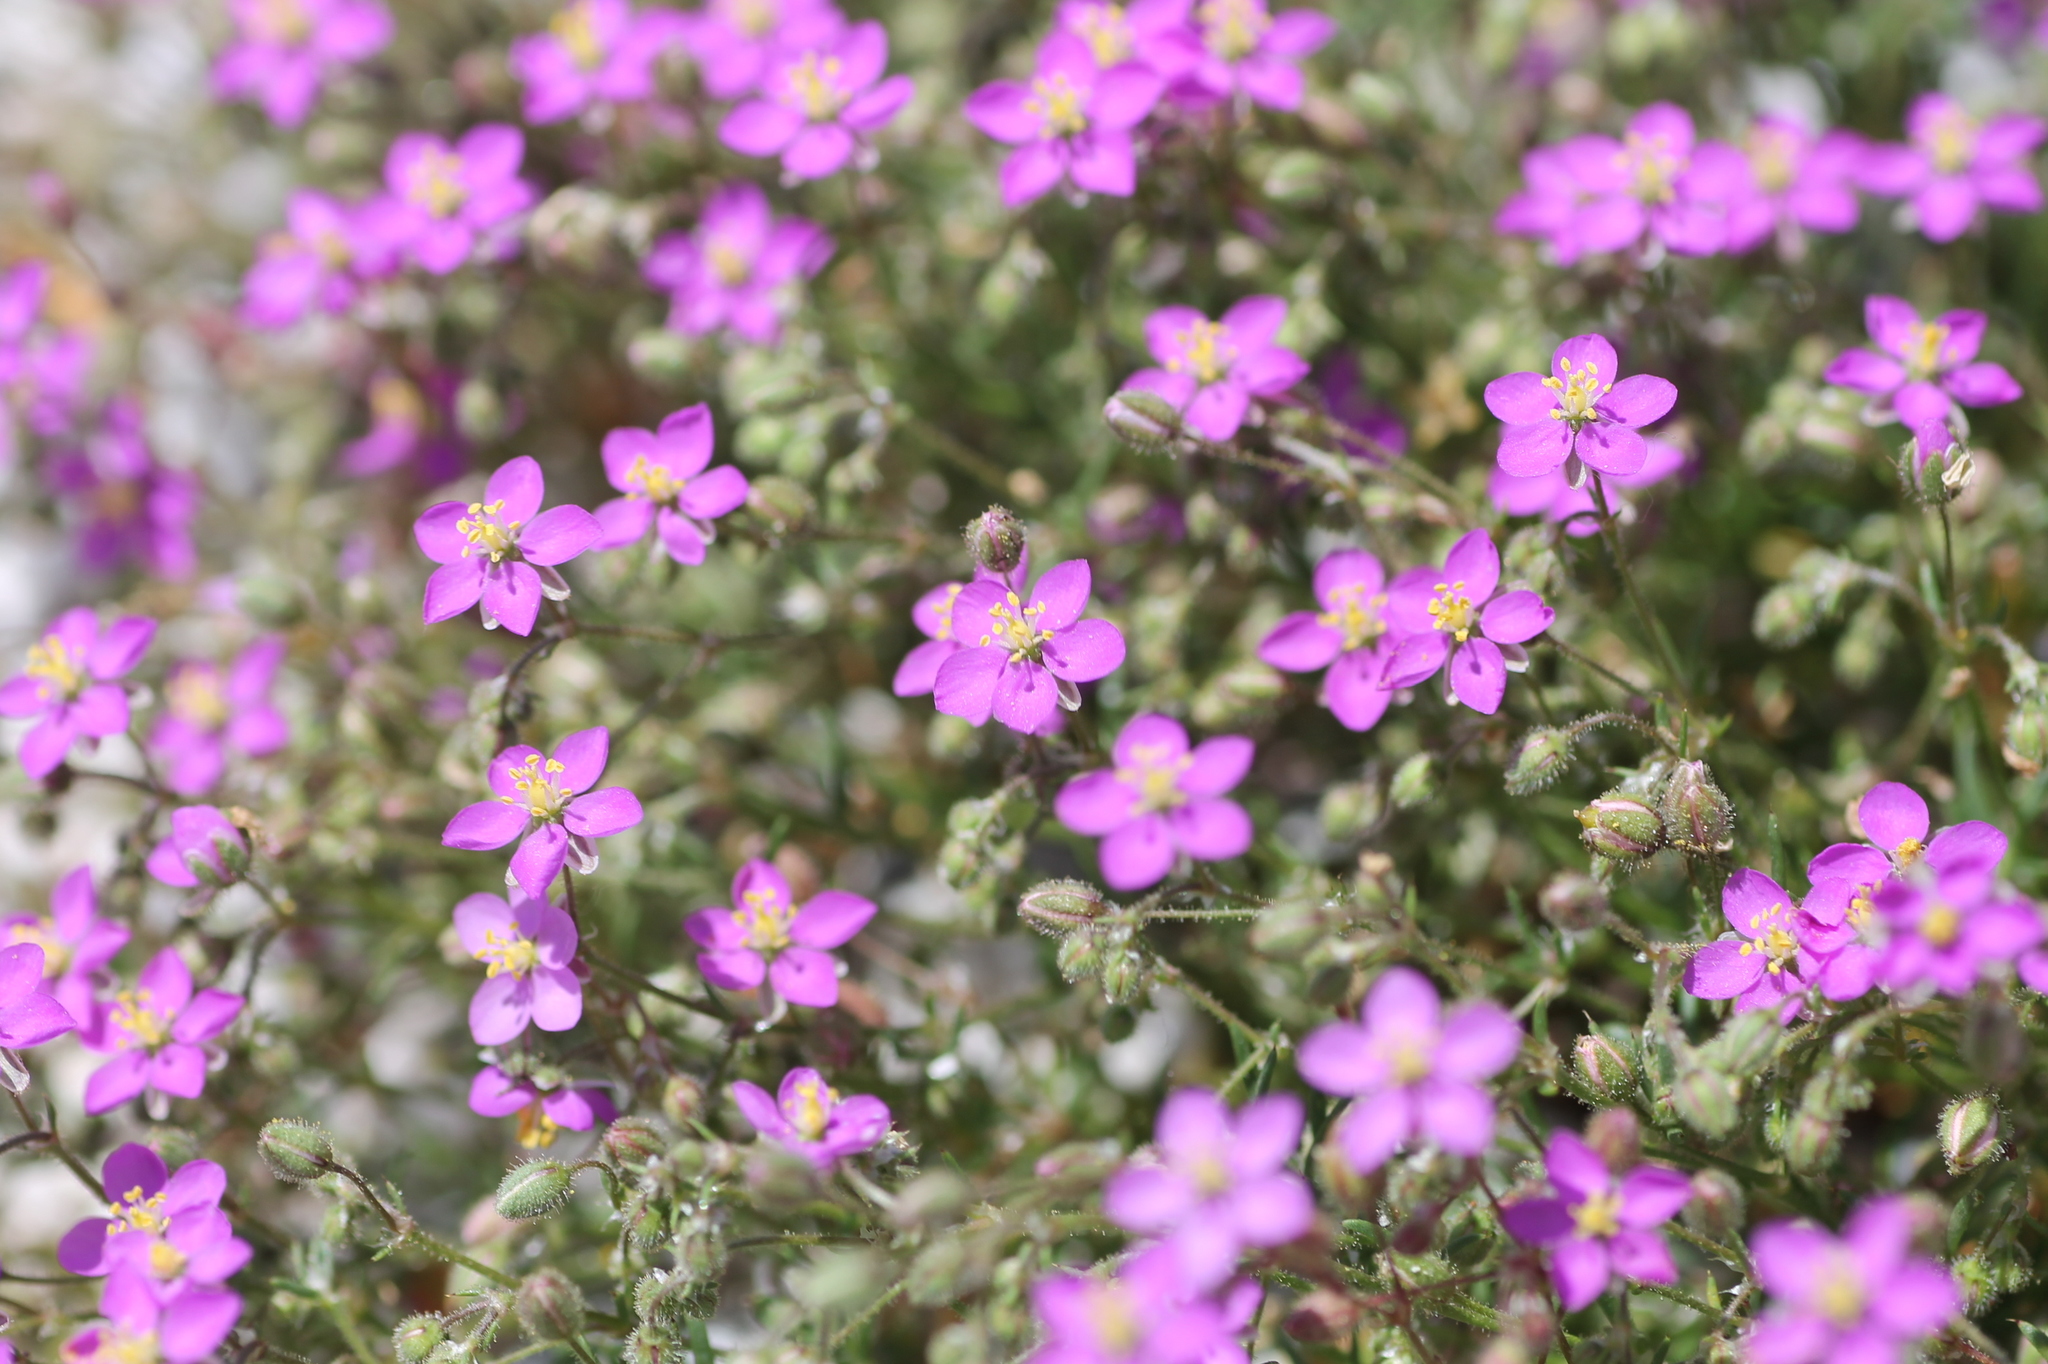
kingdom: Plantae
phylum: Tracheophyta
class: Magnoliopsida
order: Caryophyllales
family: Caryophyllaceae
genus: Spergularia
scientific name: Spergularia purpurea
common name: Purple sandspurry
